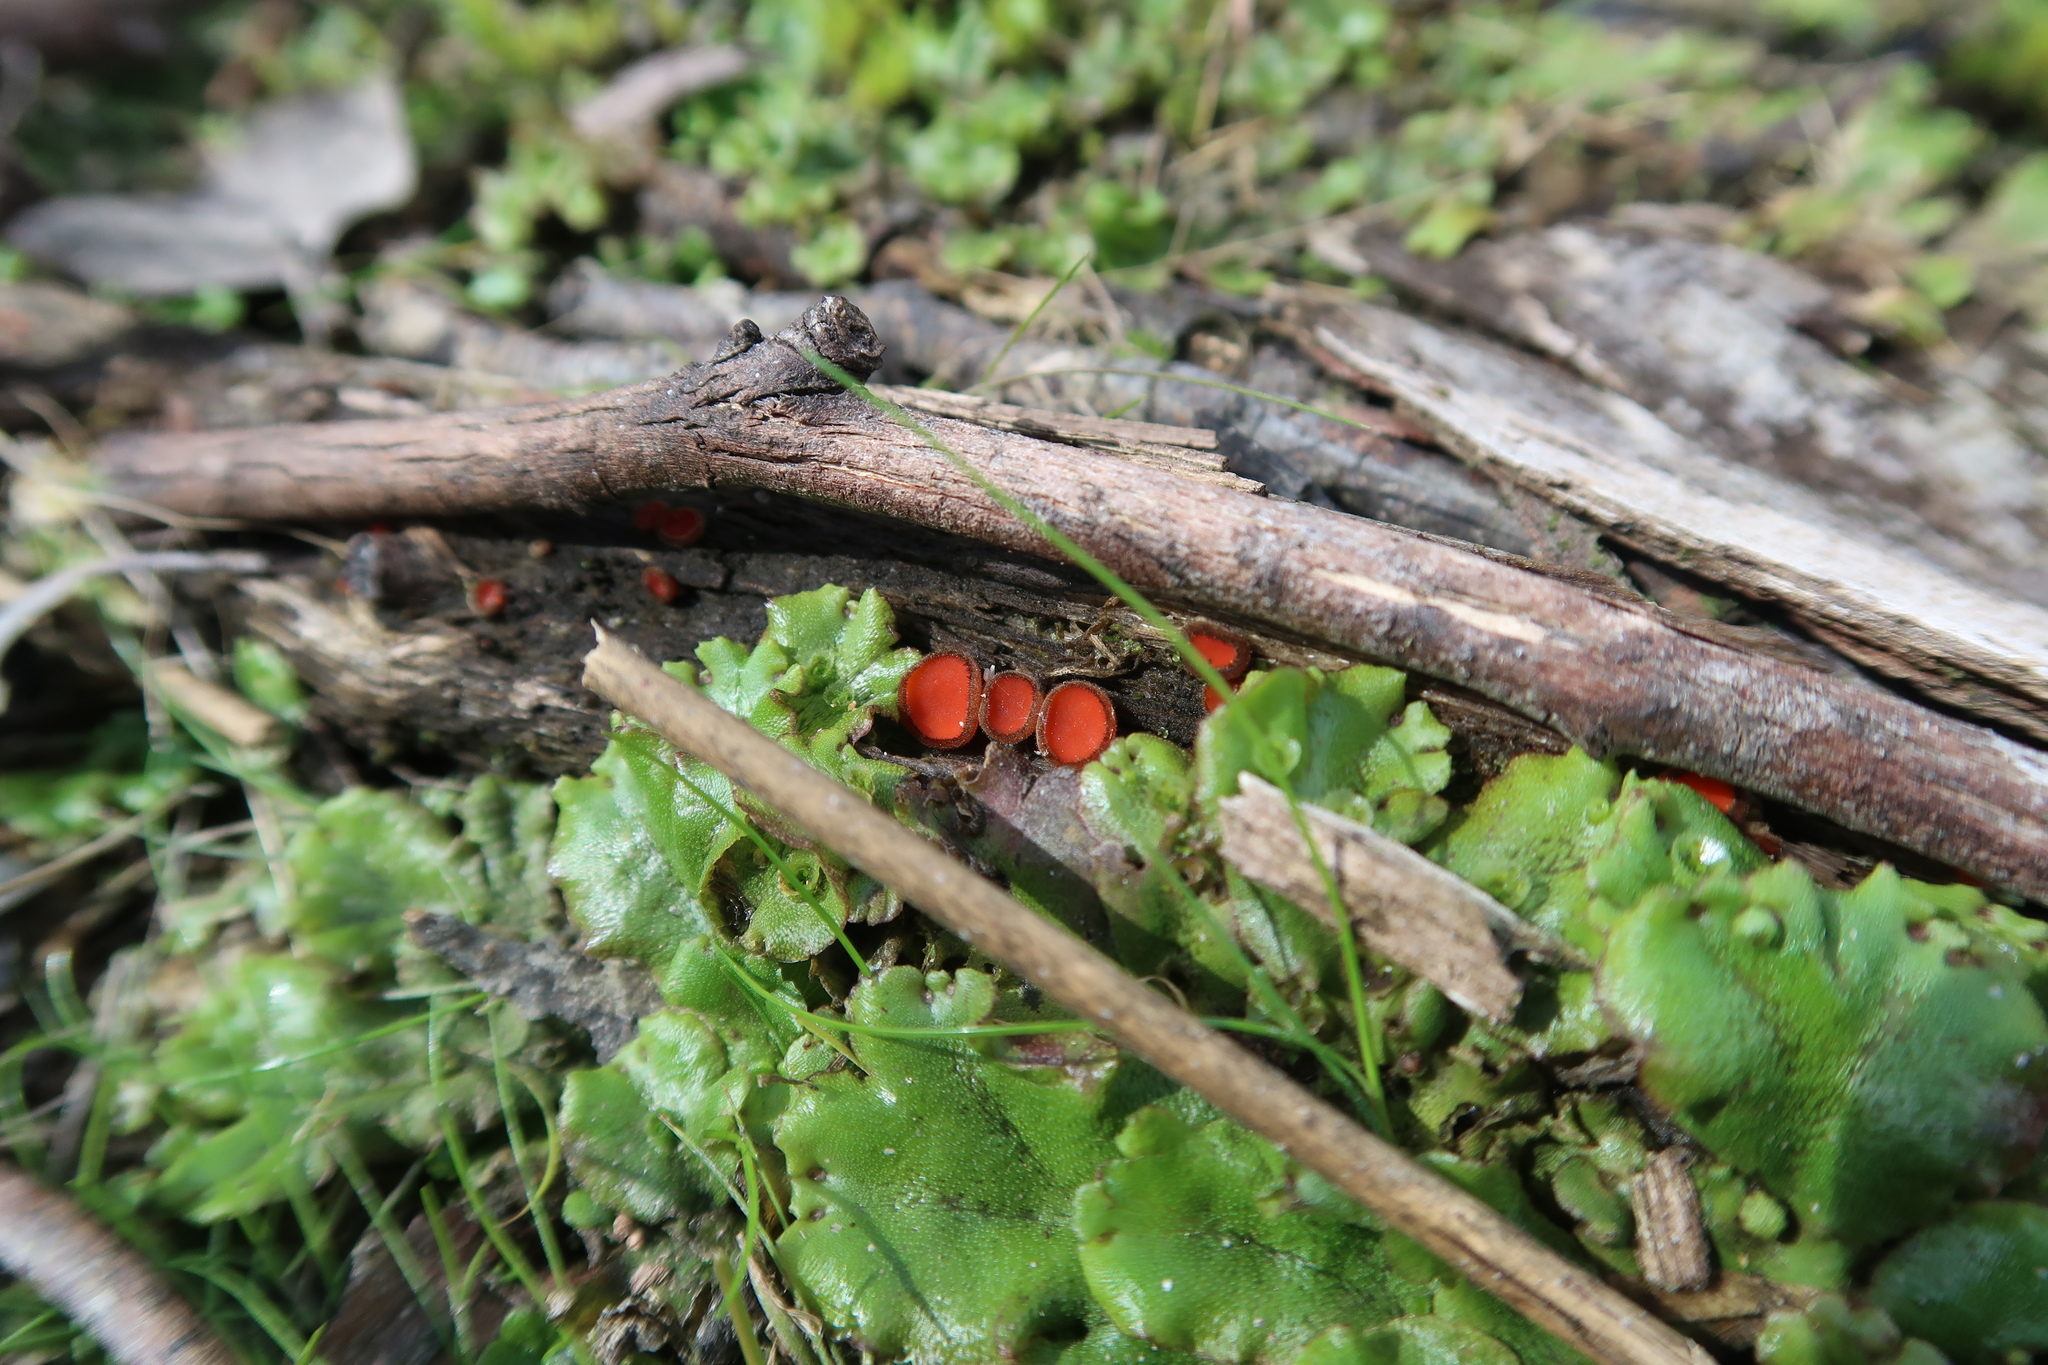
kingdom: Fungi
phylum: Ascomycota
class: Pezizomycetes
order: Pezizales
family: Pyronemataceae
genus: Scutellinia
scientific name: Scutellinia
